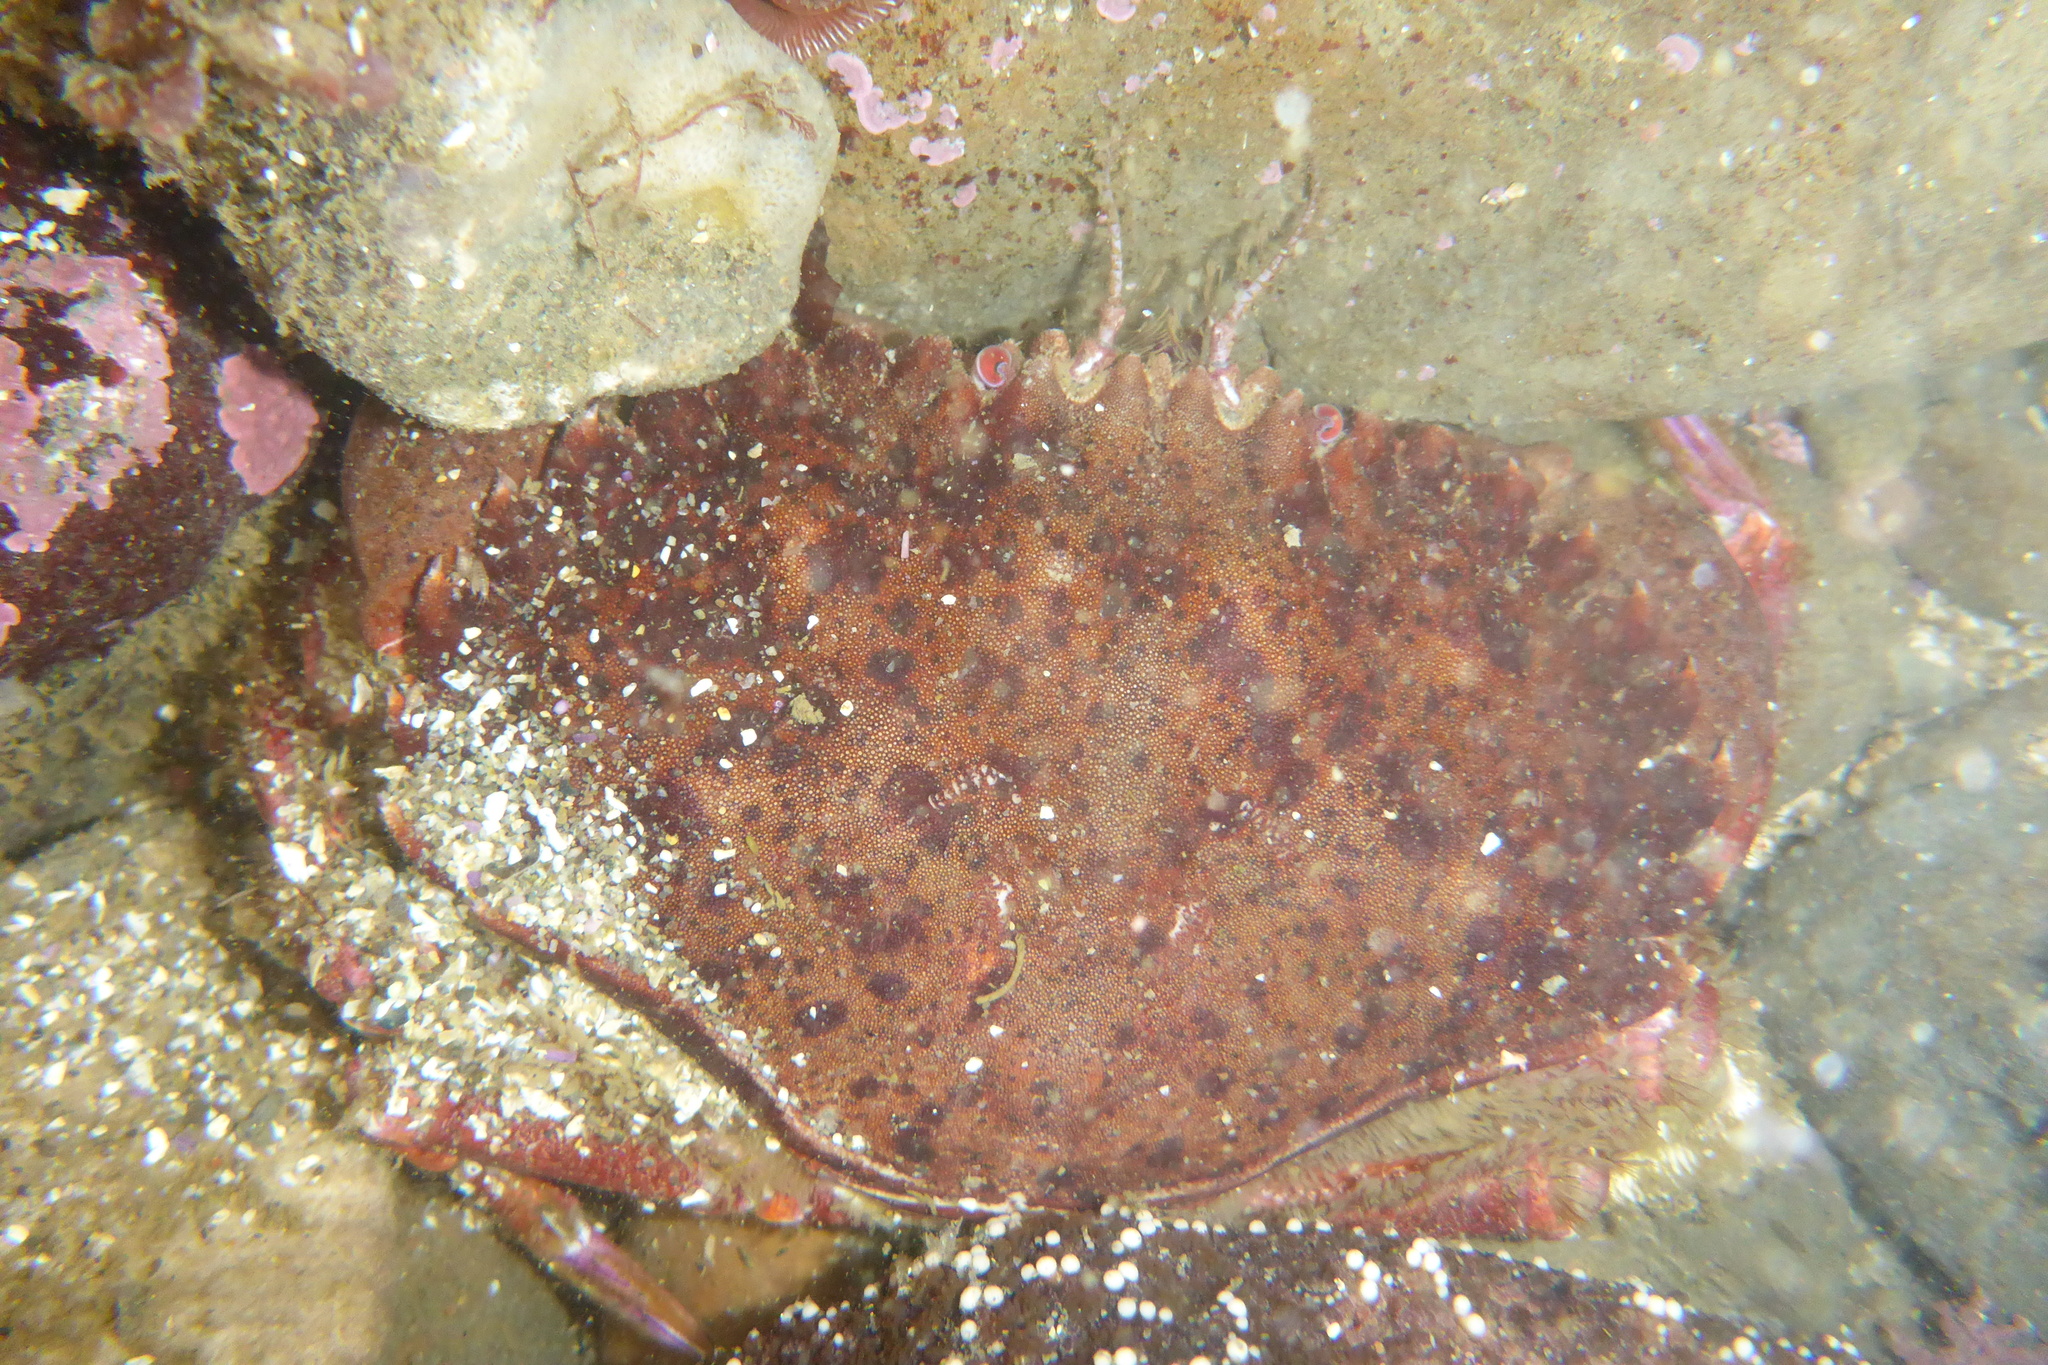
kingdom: Animalia
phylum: Arthropoda
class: Malacostraca
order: Decapoda
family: Cancridae
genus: Romaleon
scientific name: Romaleon antennarium
